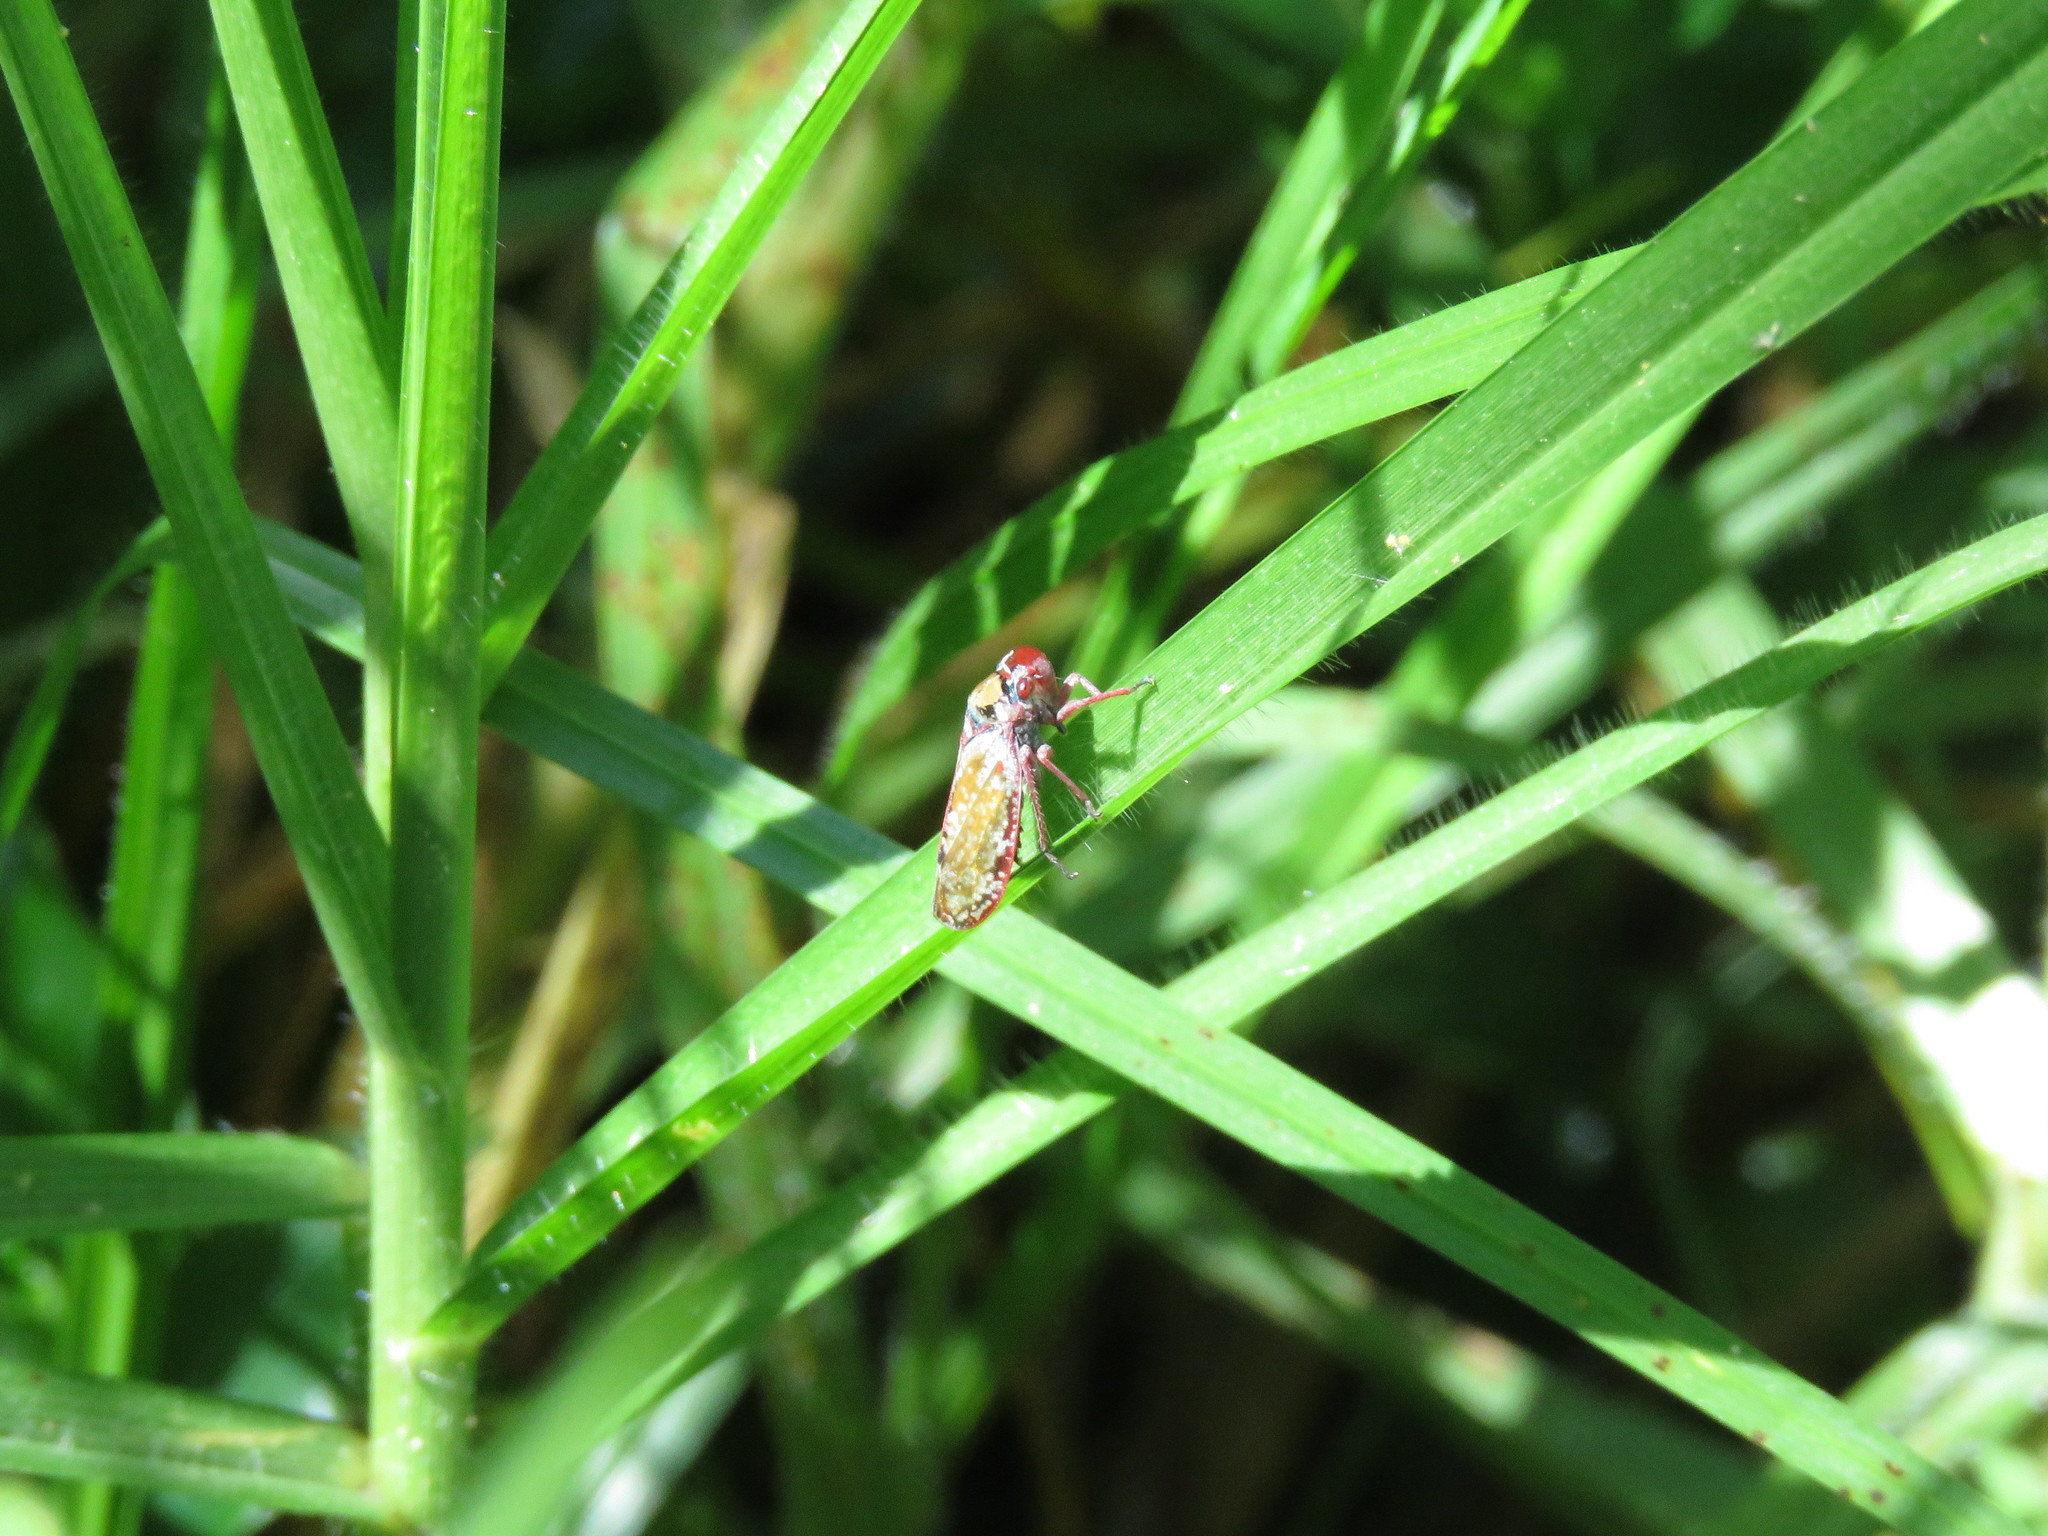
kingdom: Animalia
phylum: Arthropoda
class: Insecta
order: Hemiptera
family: Cicadellidae
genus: Paracatua
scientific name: Paracatua rubrolimbata
